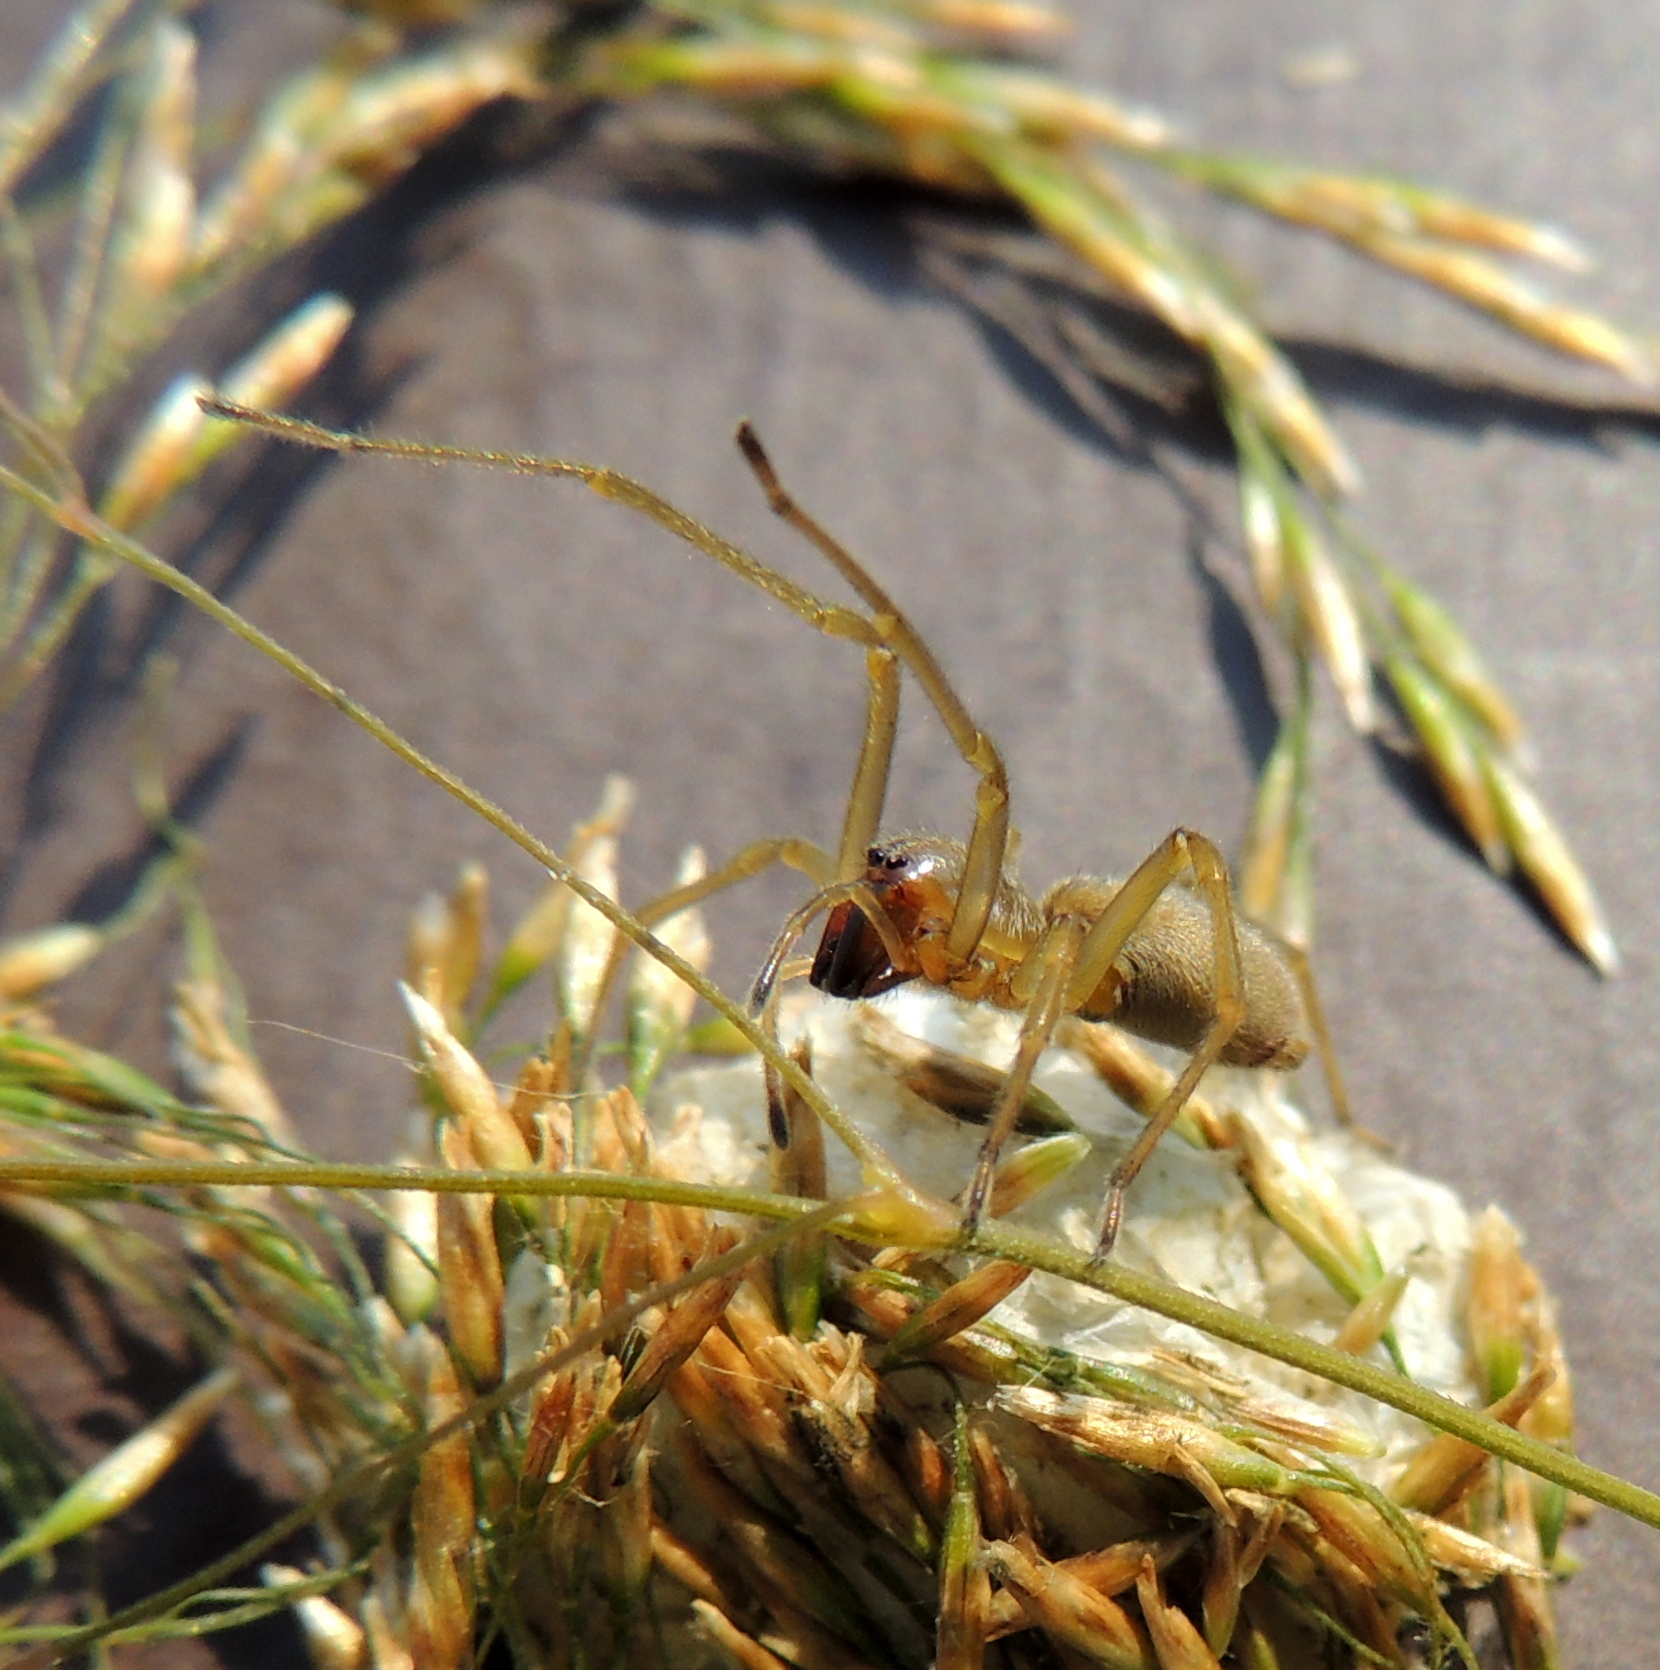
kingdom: Animalia
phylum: Arthropoda
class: Arachnida
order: Araneae
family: Cheiracanthiidae
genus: Cheiracanthium
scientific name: Cheiracanthium erraticum
